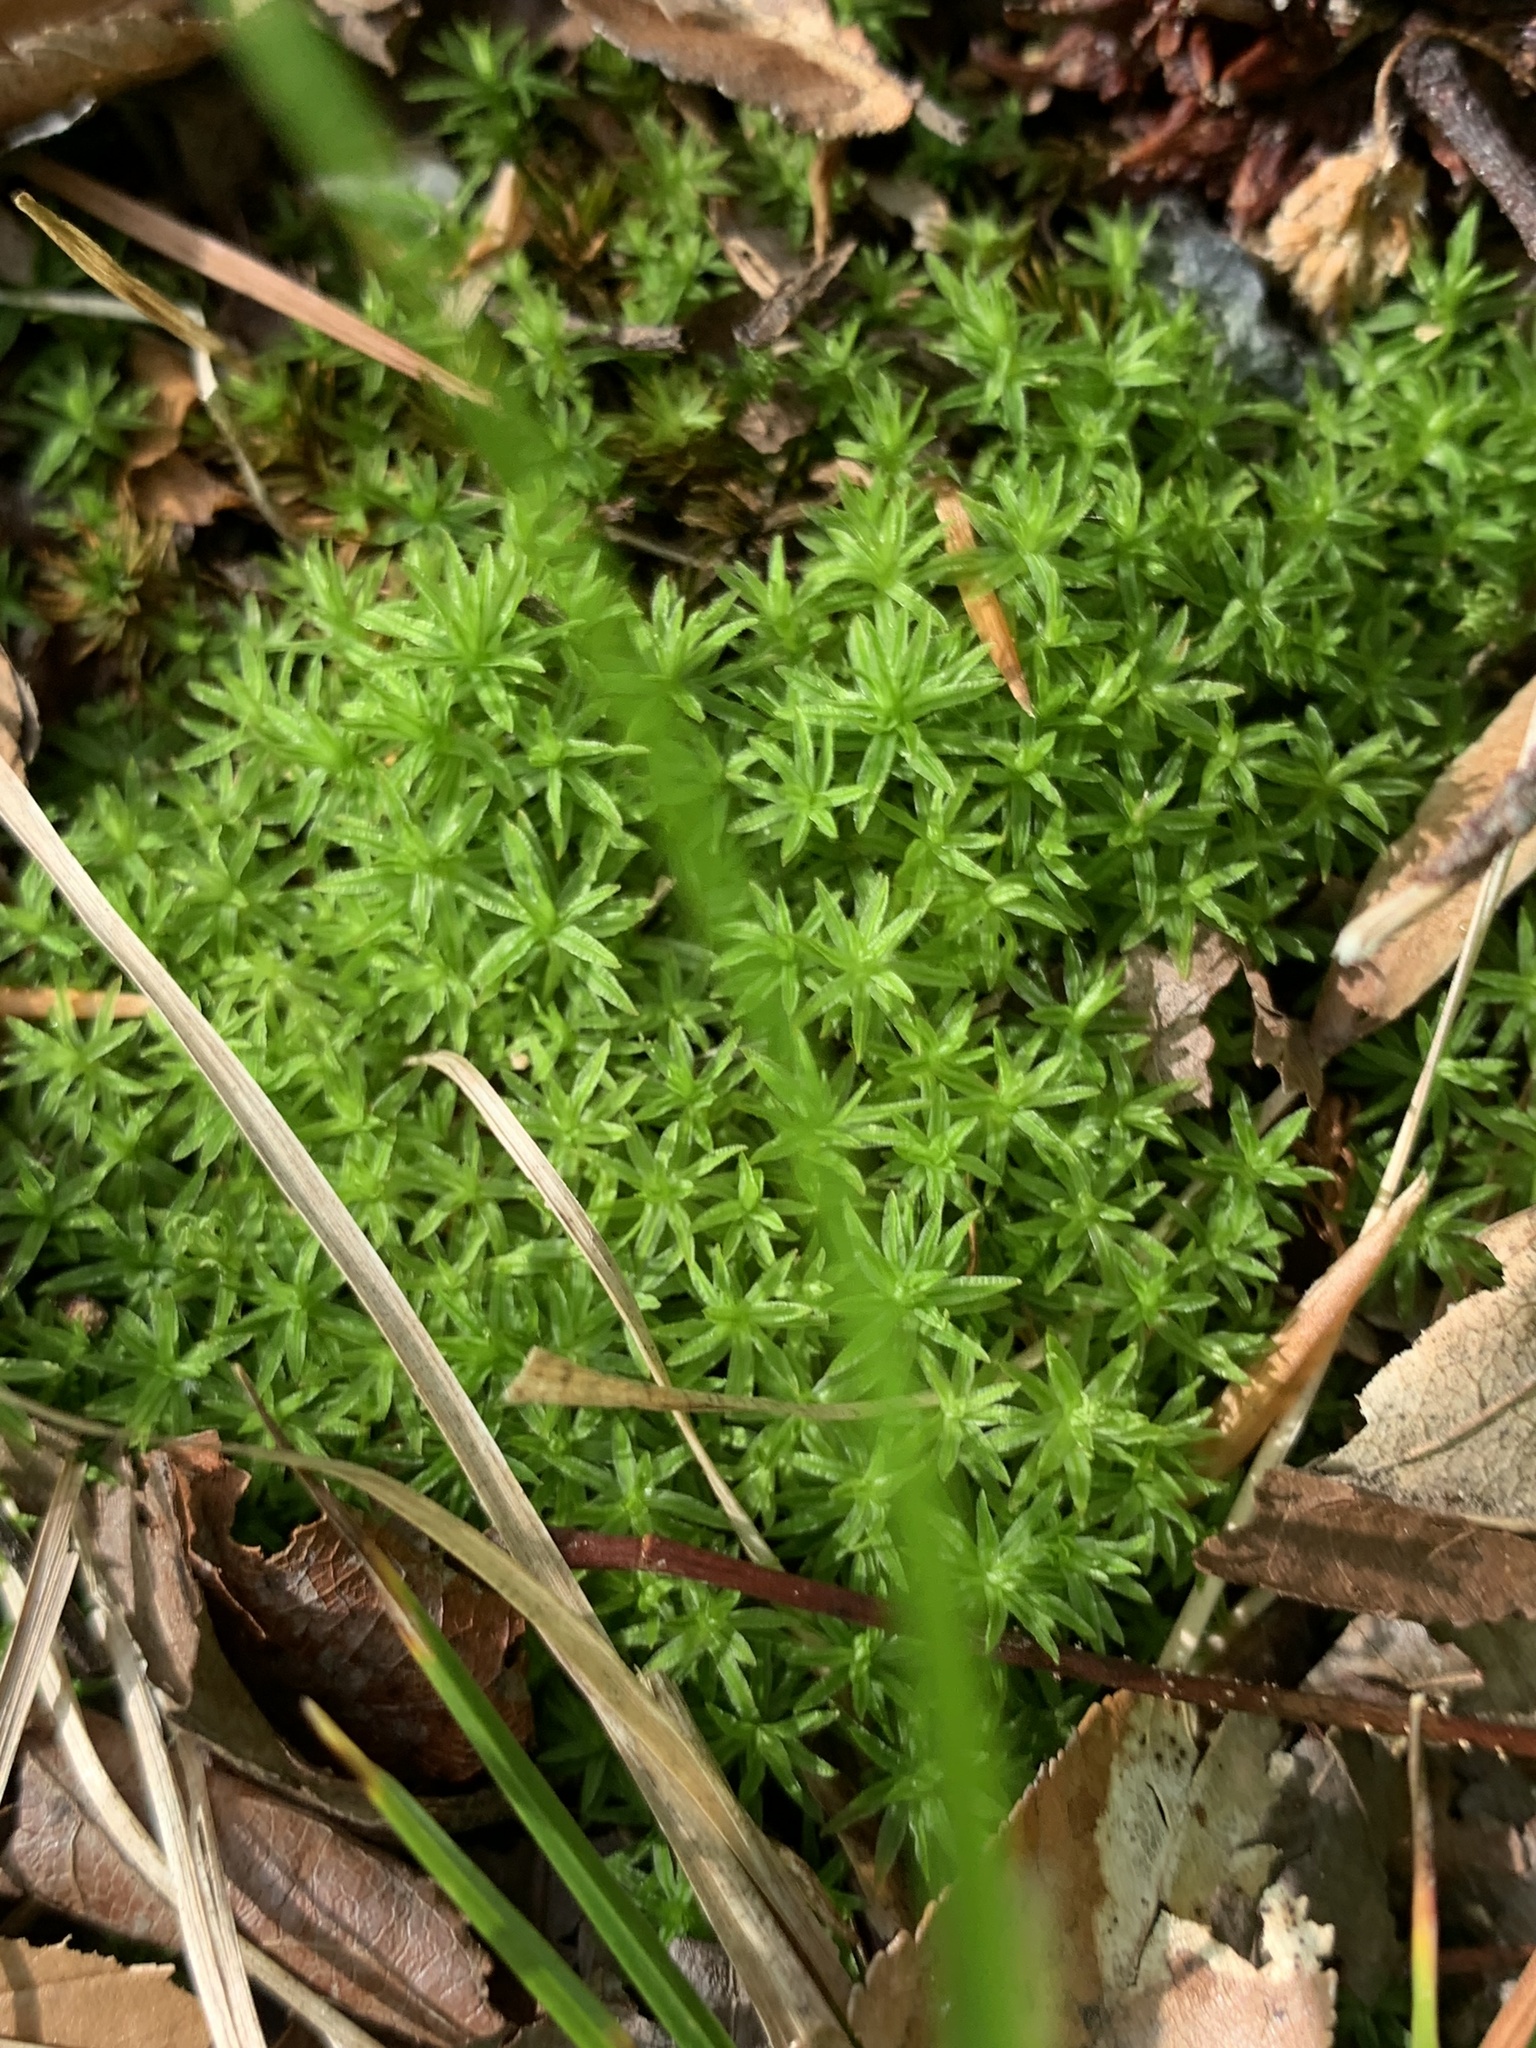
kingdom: Plantae
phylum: Bryophyta
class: Polytrichopsida
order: Polytrichales
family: Polytrichaceae
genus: Atrichum
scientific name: Atrichum angustatum
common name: Lesser smoothcap
